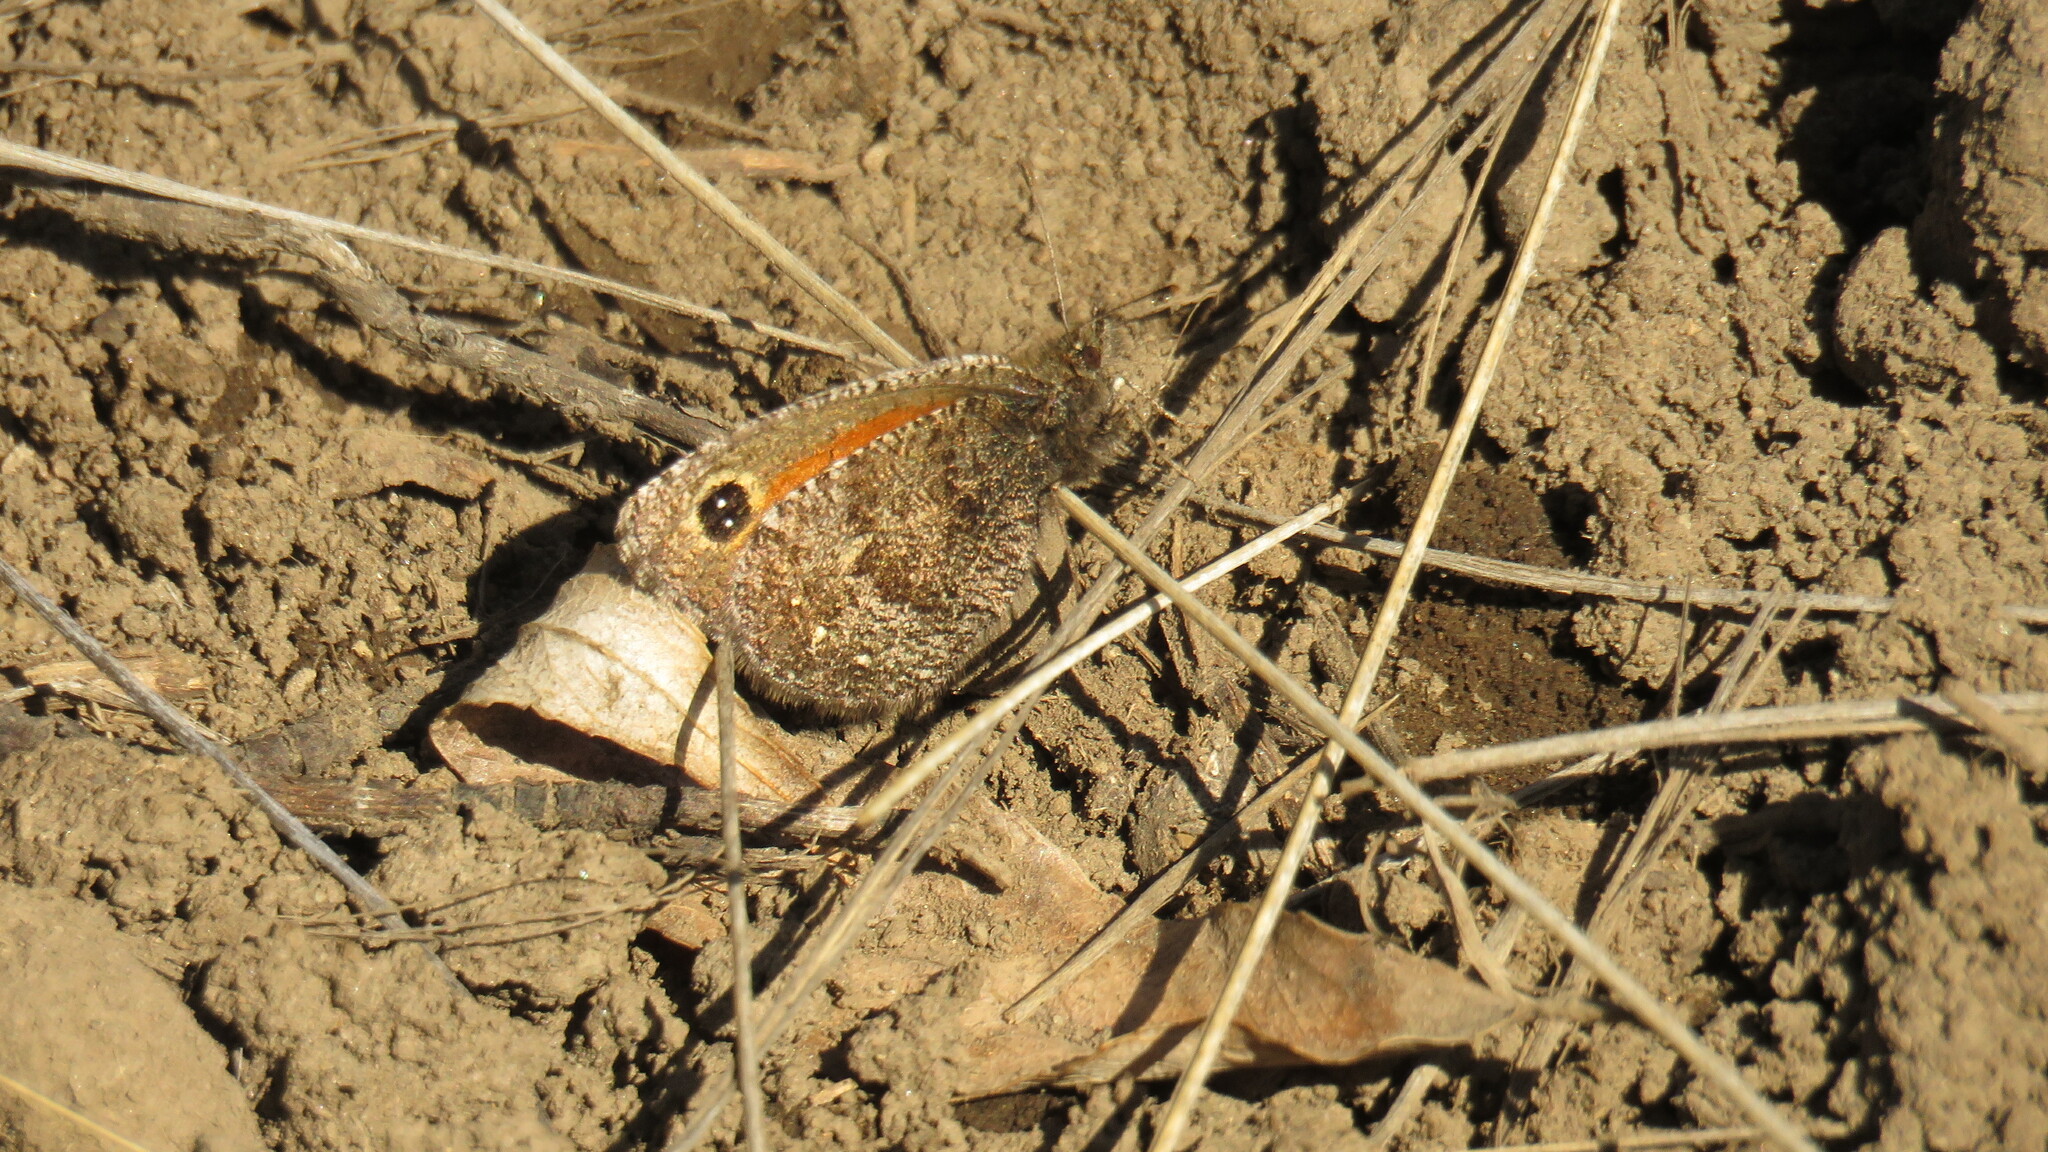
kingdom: Animalia
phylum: Arthropoda
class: Insecta
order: Lepidoptera
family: Nymphalidae
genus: Homoeonympha
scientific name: Homoeonympha boisduvalii
